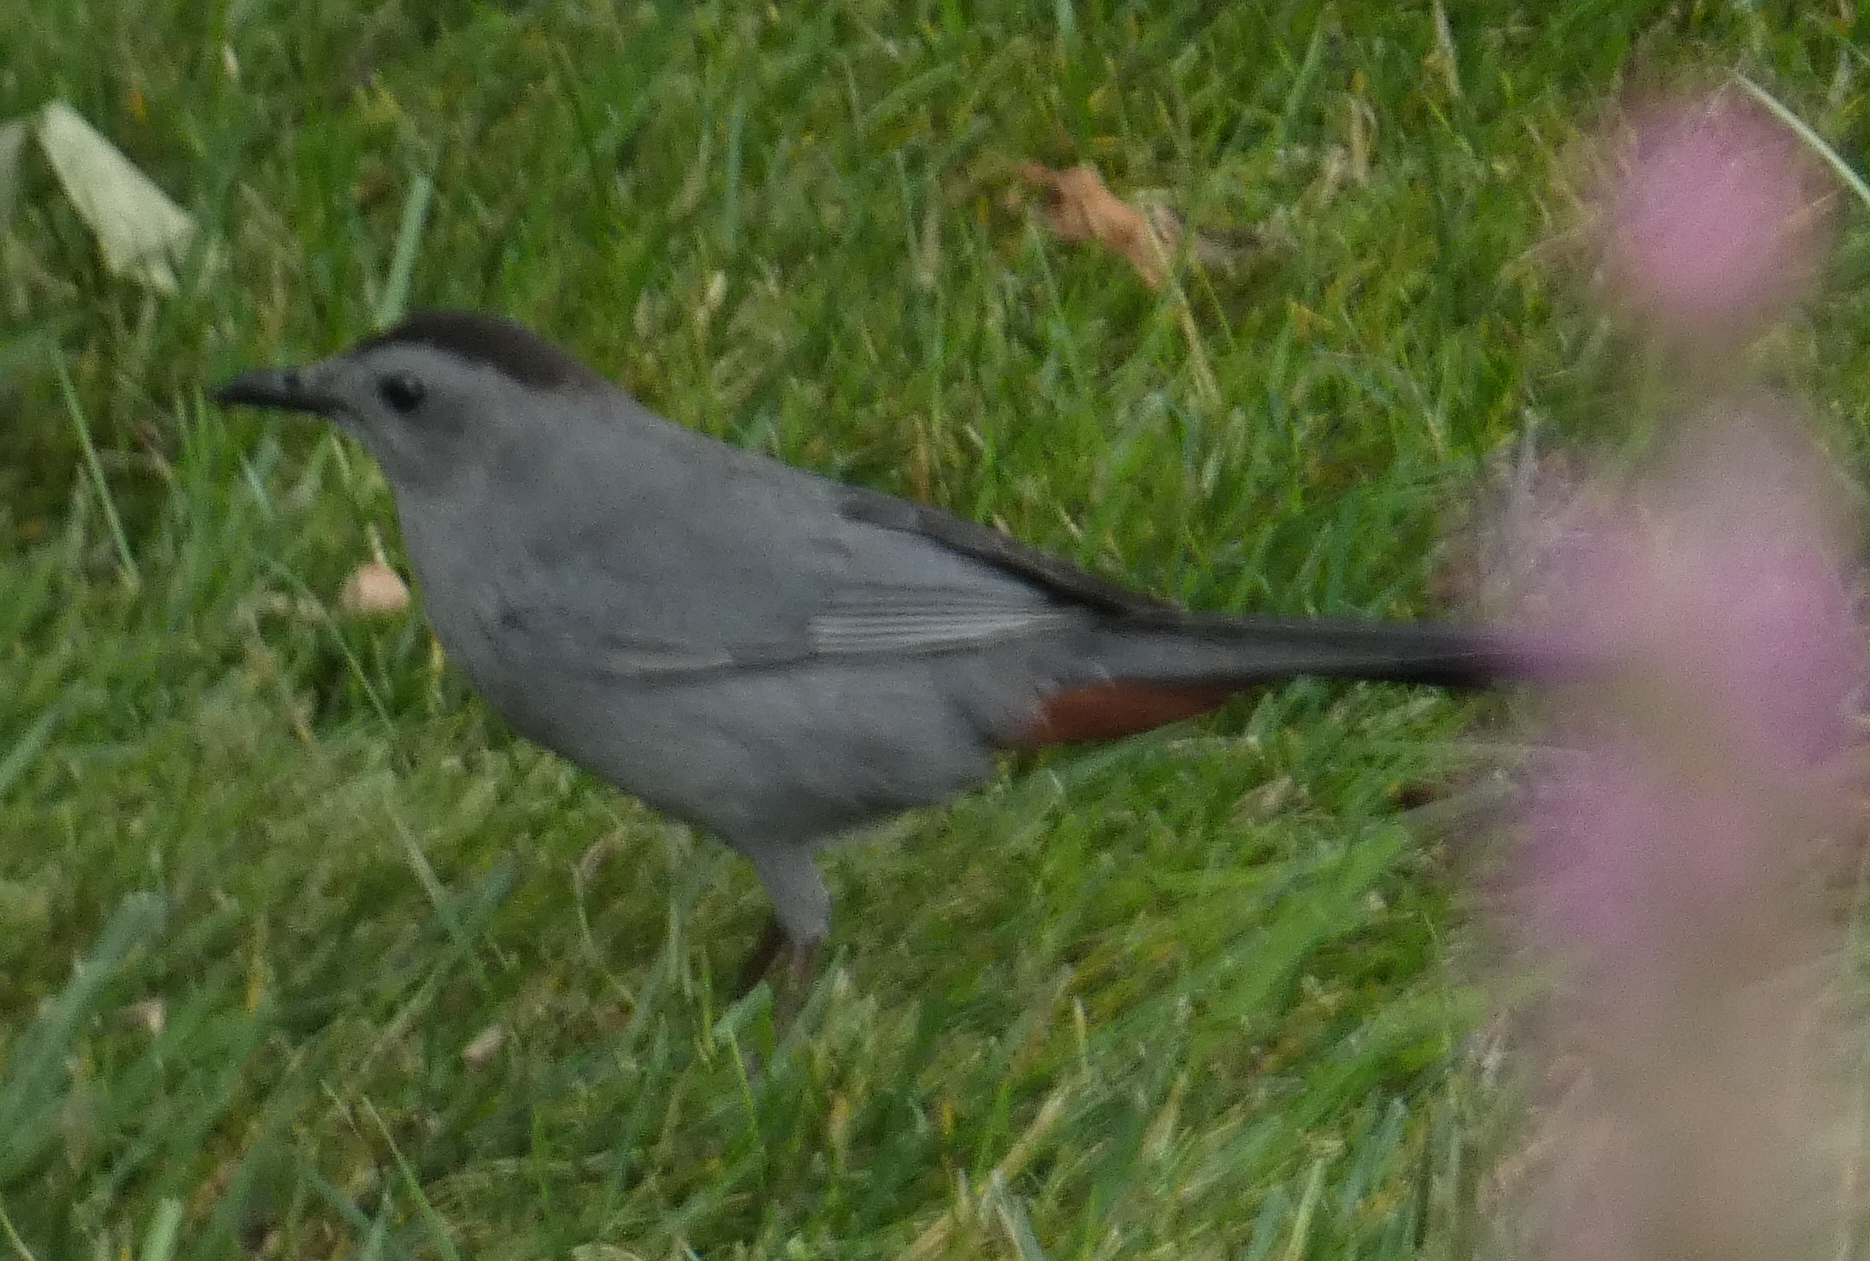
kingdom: Animalia
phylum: Chordata
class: Aves
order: Passeriformes
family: Mimidae
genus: Dumetella
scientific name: Dumetella carolinensis
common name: Gray catbird
